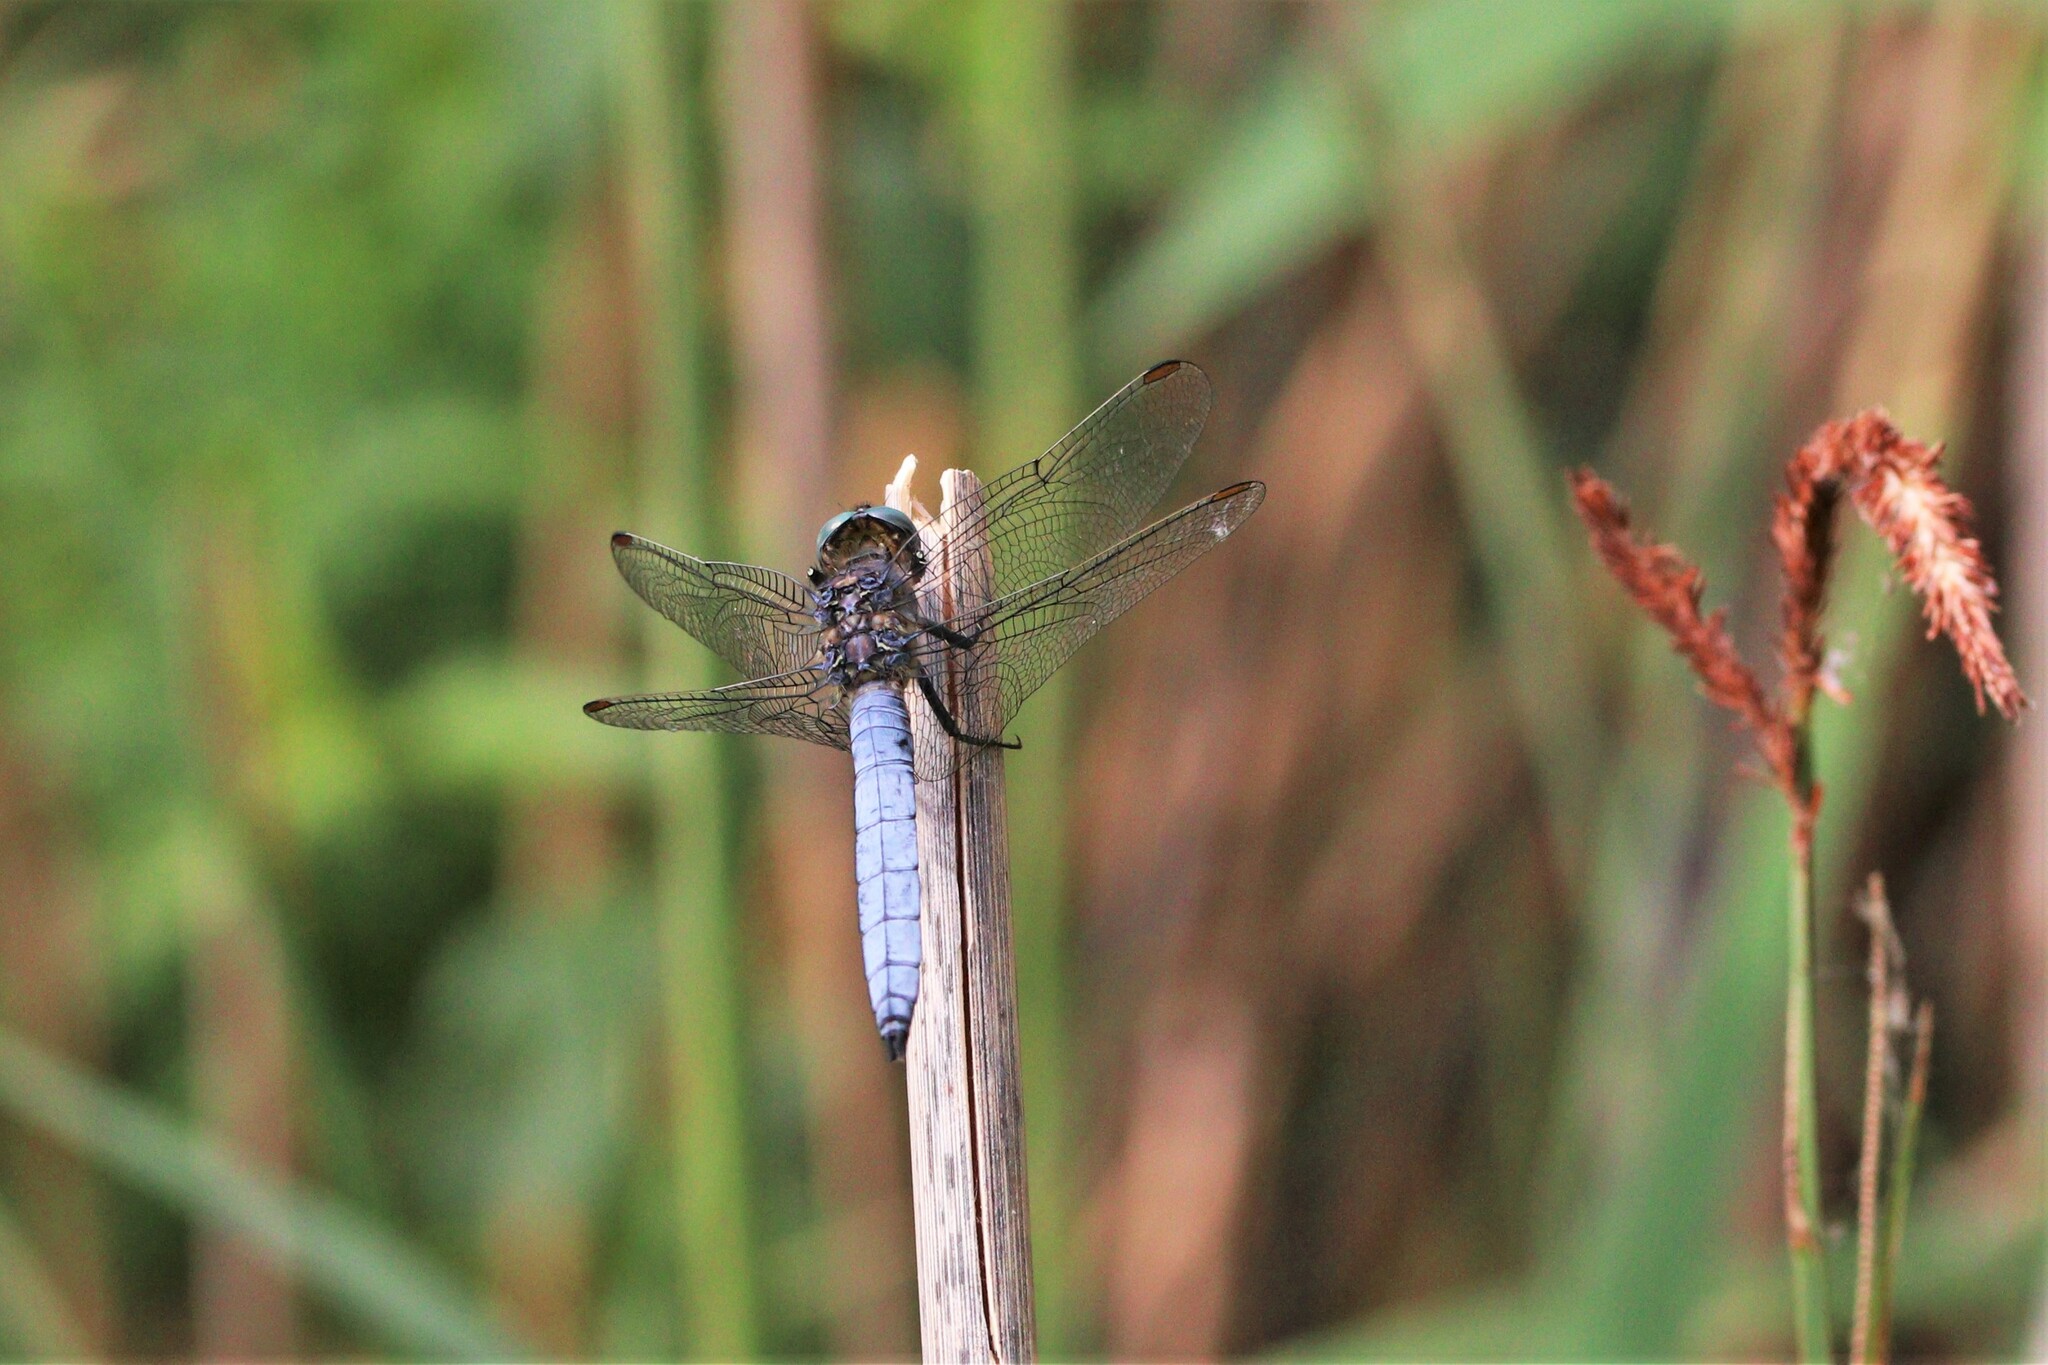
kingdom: Animalia
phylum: Arthropoda
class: Insecta
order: Odonata
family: Libellulidae
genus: Orthetrum
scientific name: Orthetrum coerulescens
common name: Keeled skimmer
